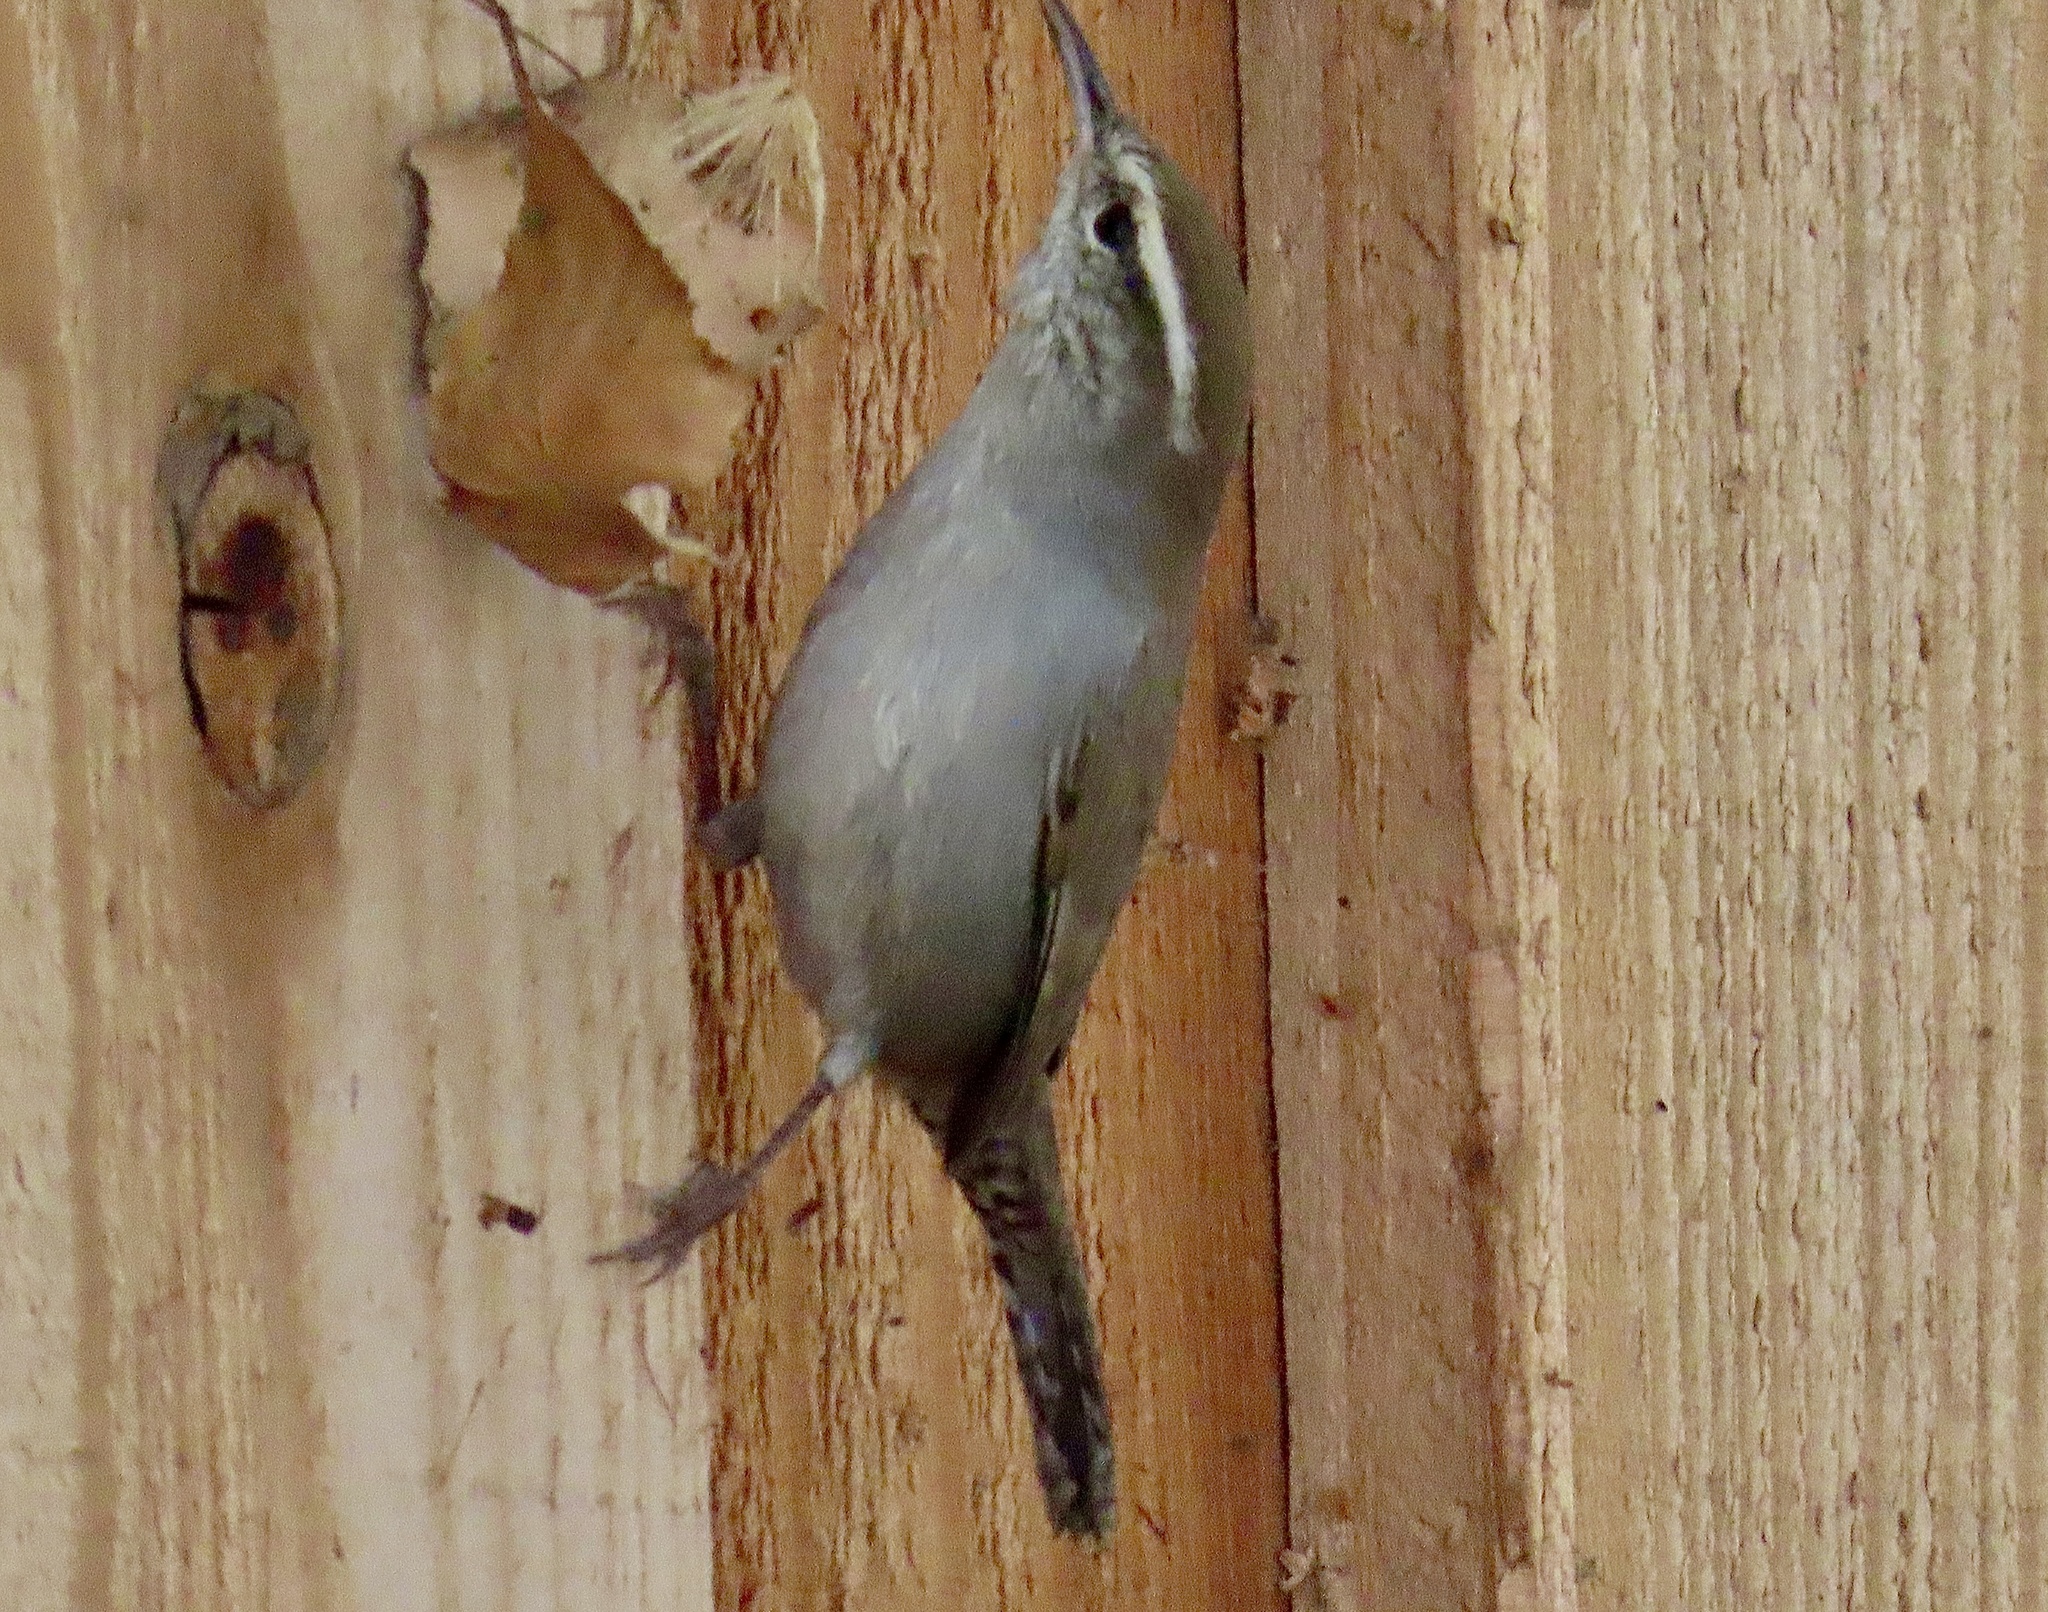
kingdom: Animalia
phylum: Chordata
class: Aves
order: Passeriformes
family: Troglodytidae
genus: Thryomanes
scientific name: Thryomanes bewickii
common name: Bewick's wren
